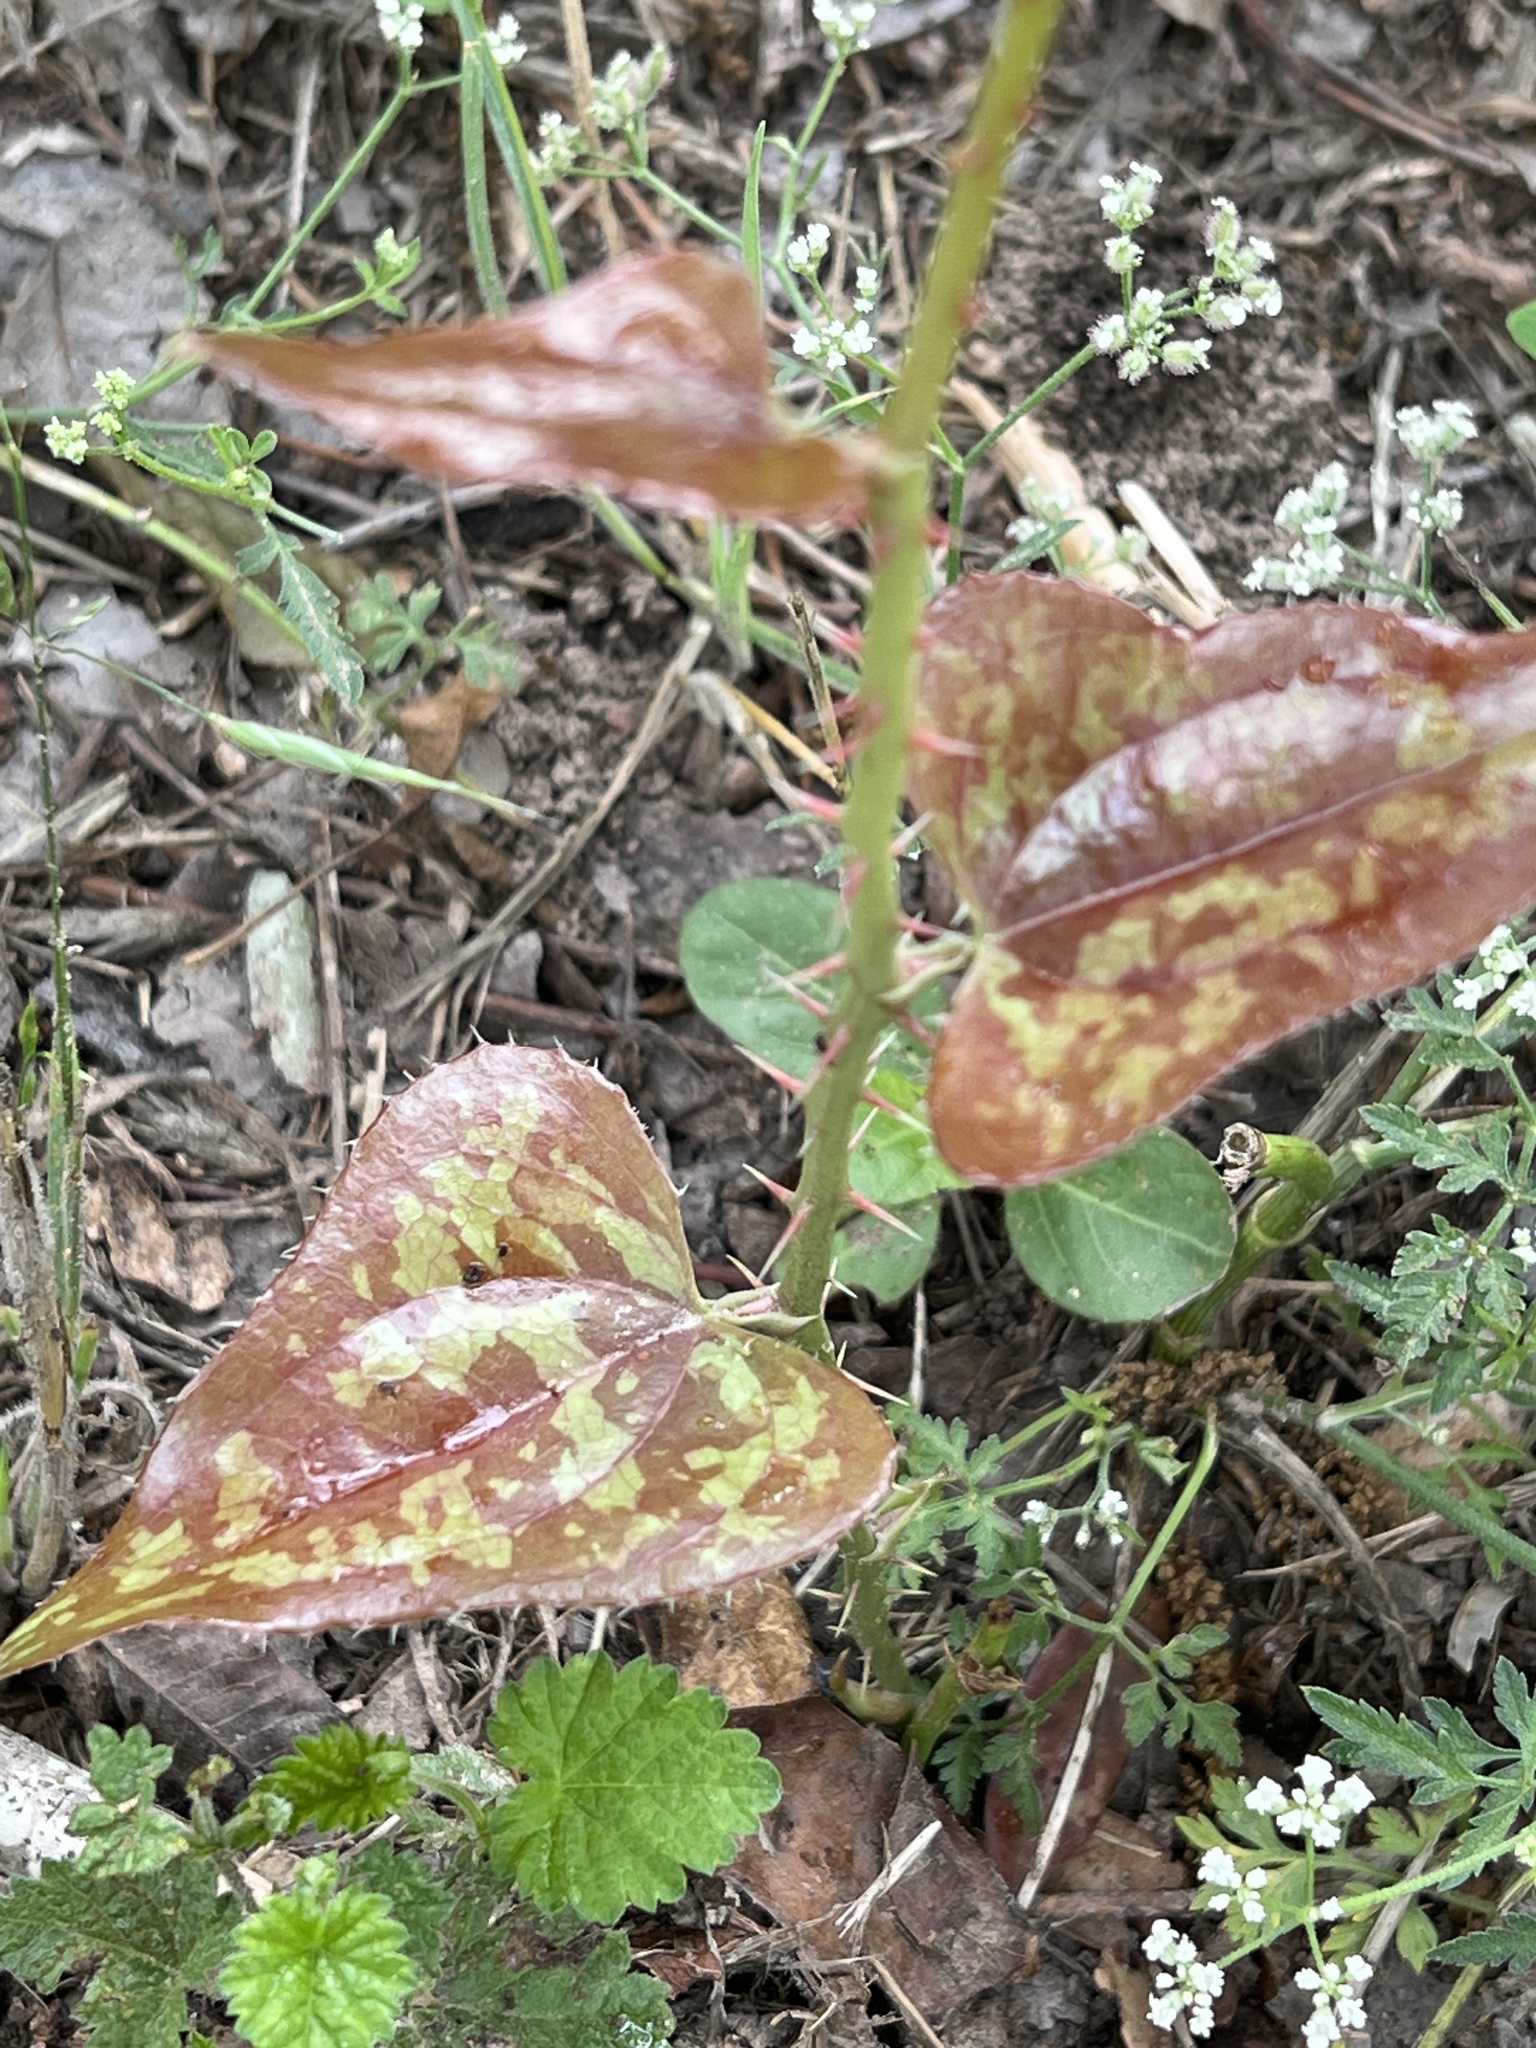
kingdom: Plantae
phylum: Tracheophyta
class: Liliopsida
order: Liliales
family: Smilacaceae
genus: Smilax
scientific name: Smilax bona-nox
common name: Catbrier
